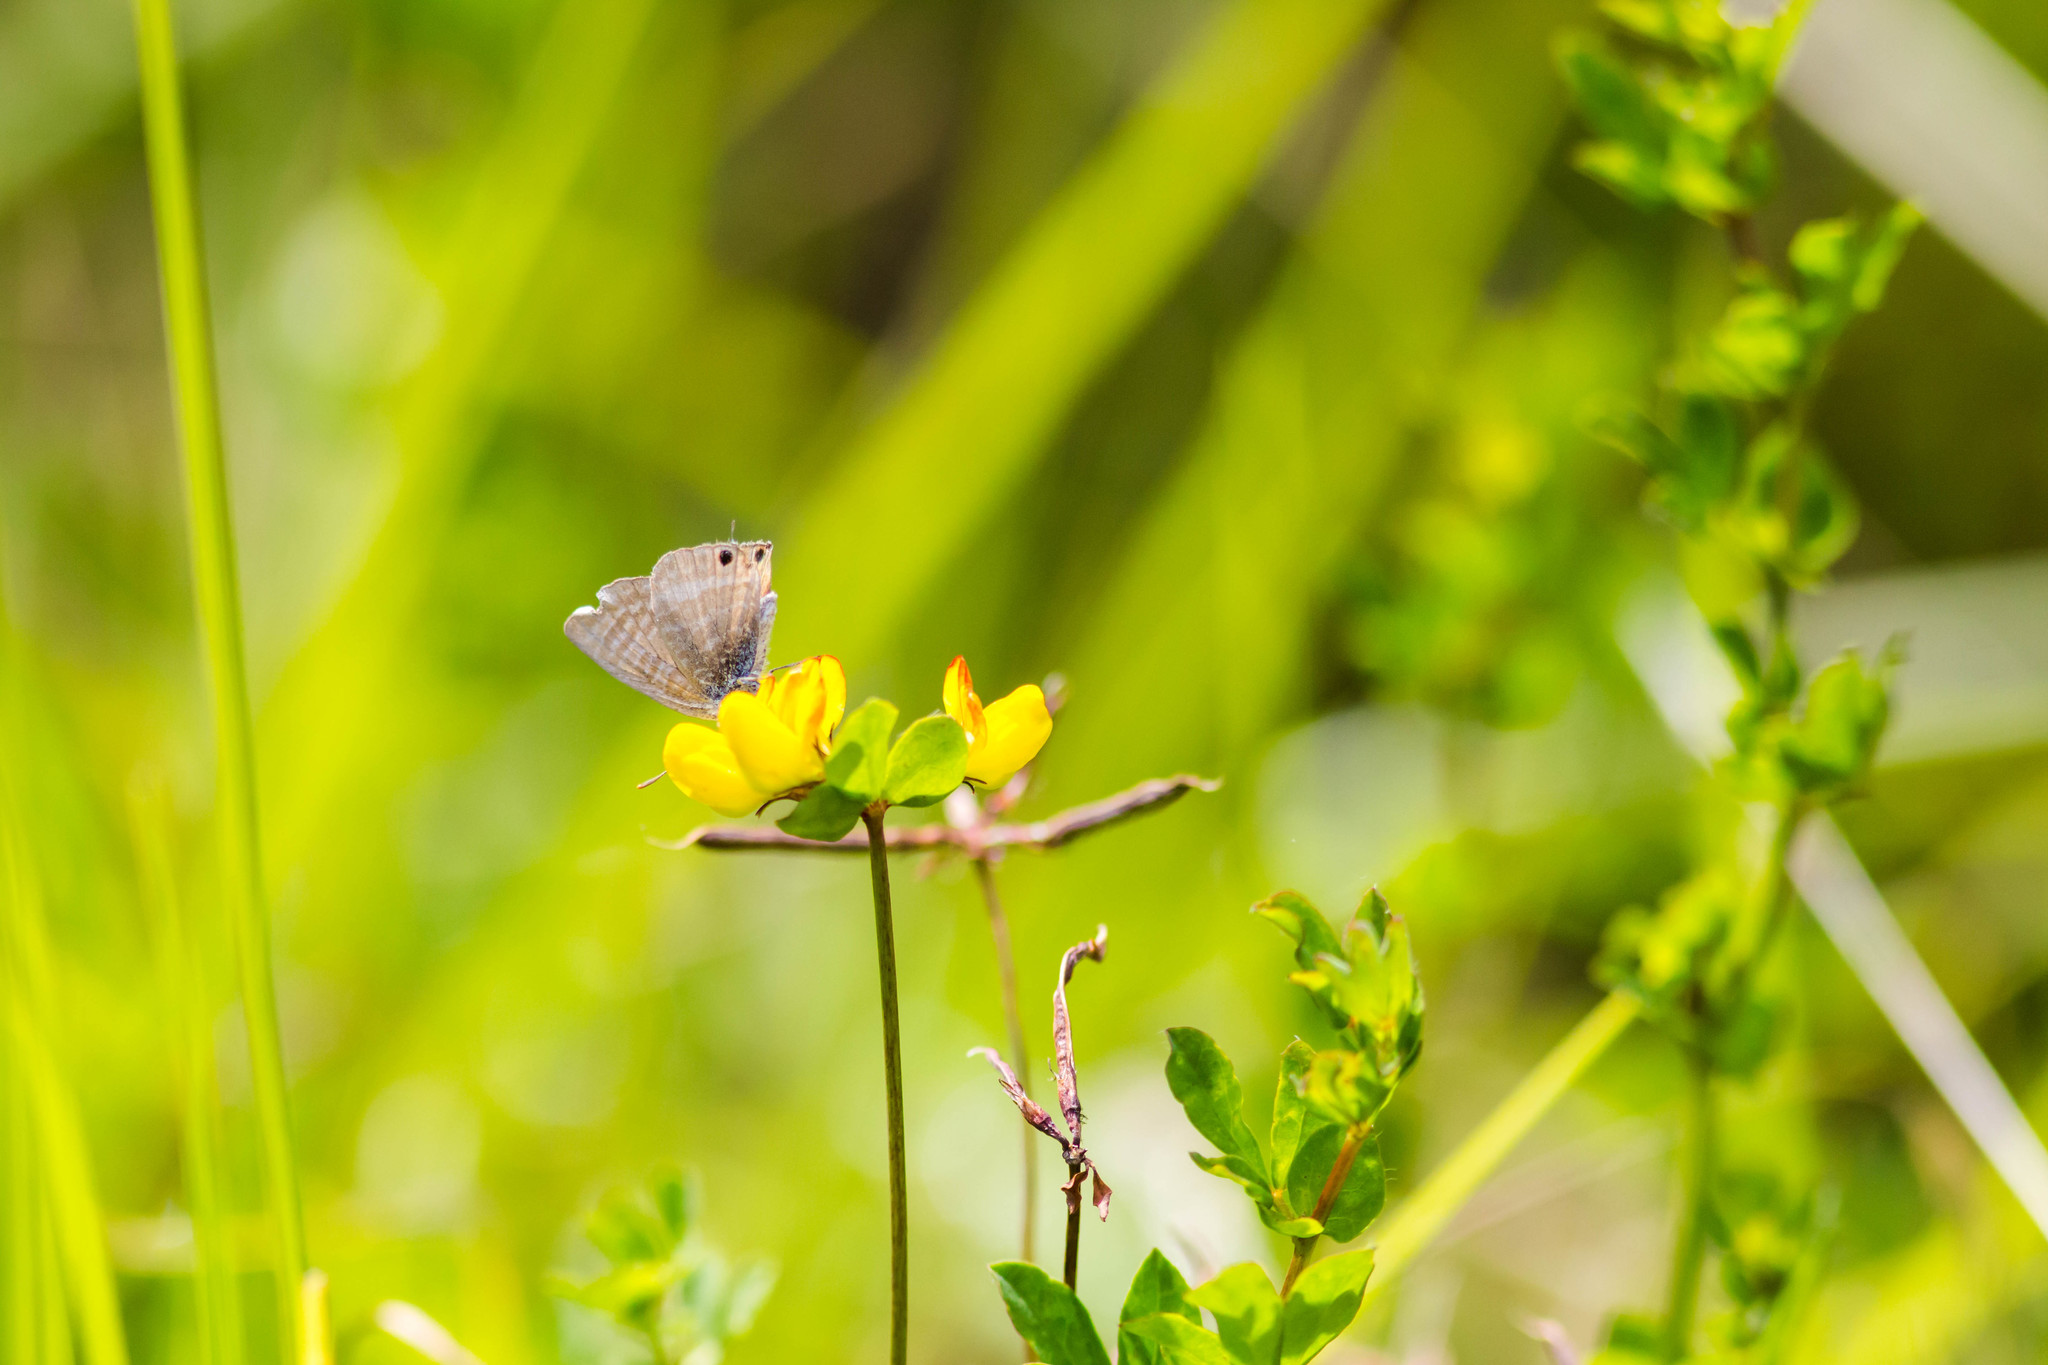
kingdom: Animalia
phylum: Arthropoda
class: Insecta
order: Lepidoptera
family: Lycaenidae
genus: Lampides
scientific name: Lampides boeticus
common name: Long-tailed blue
